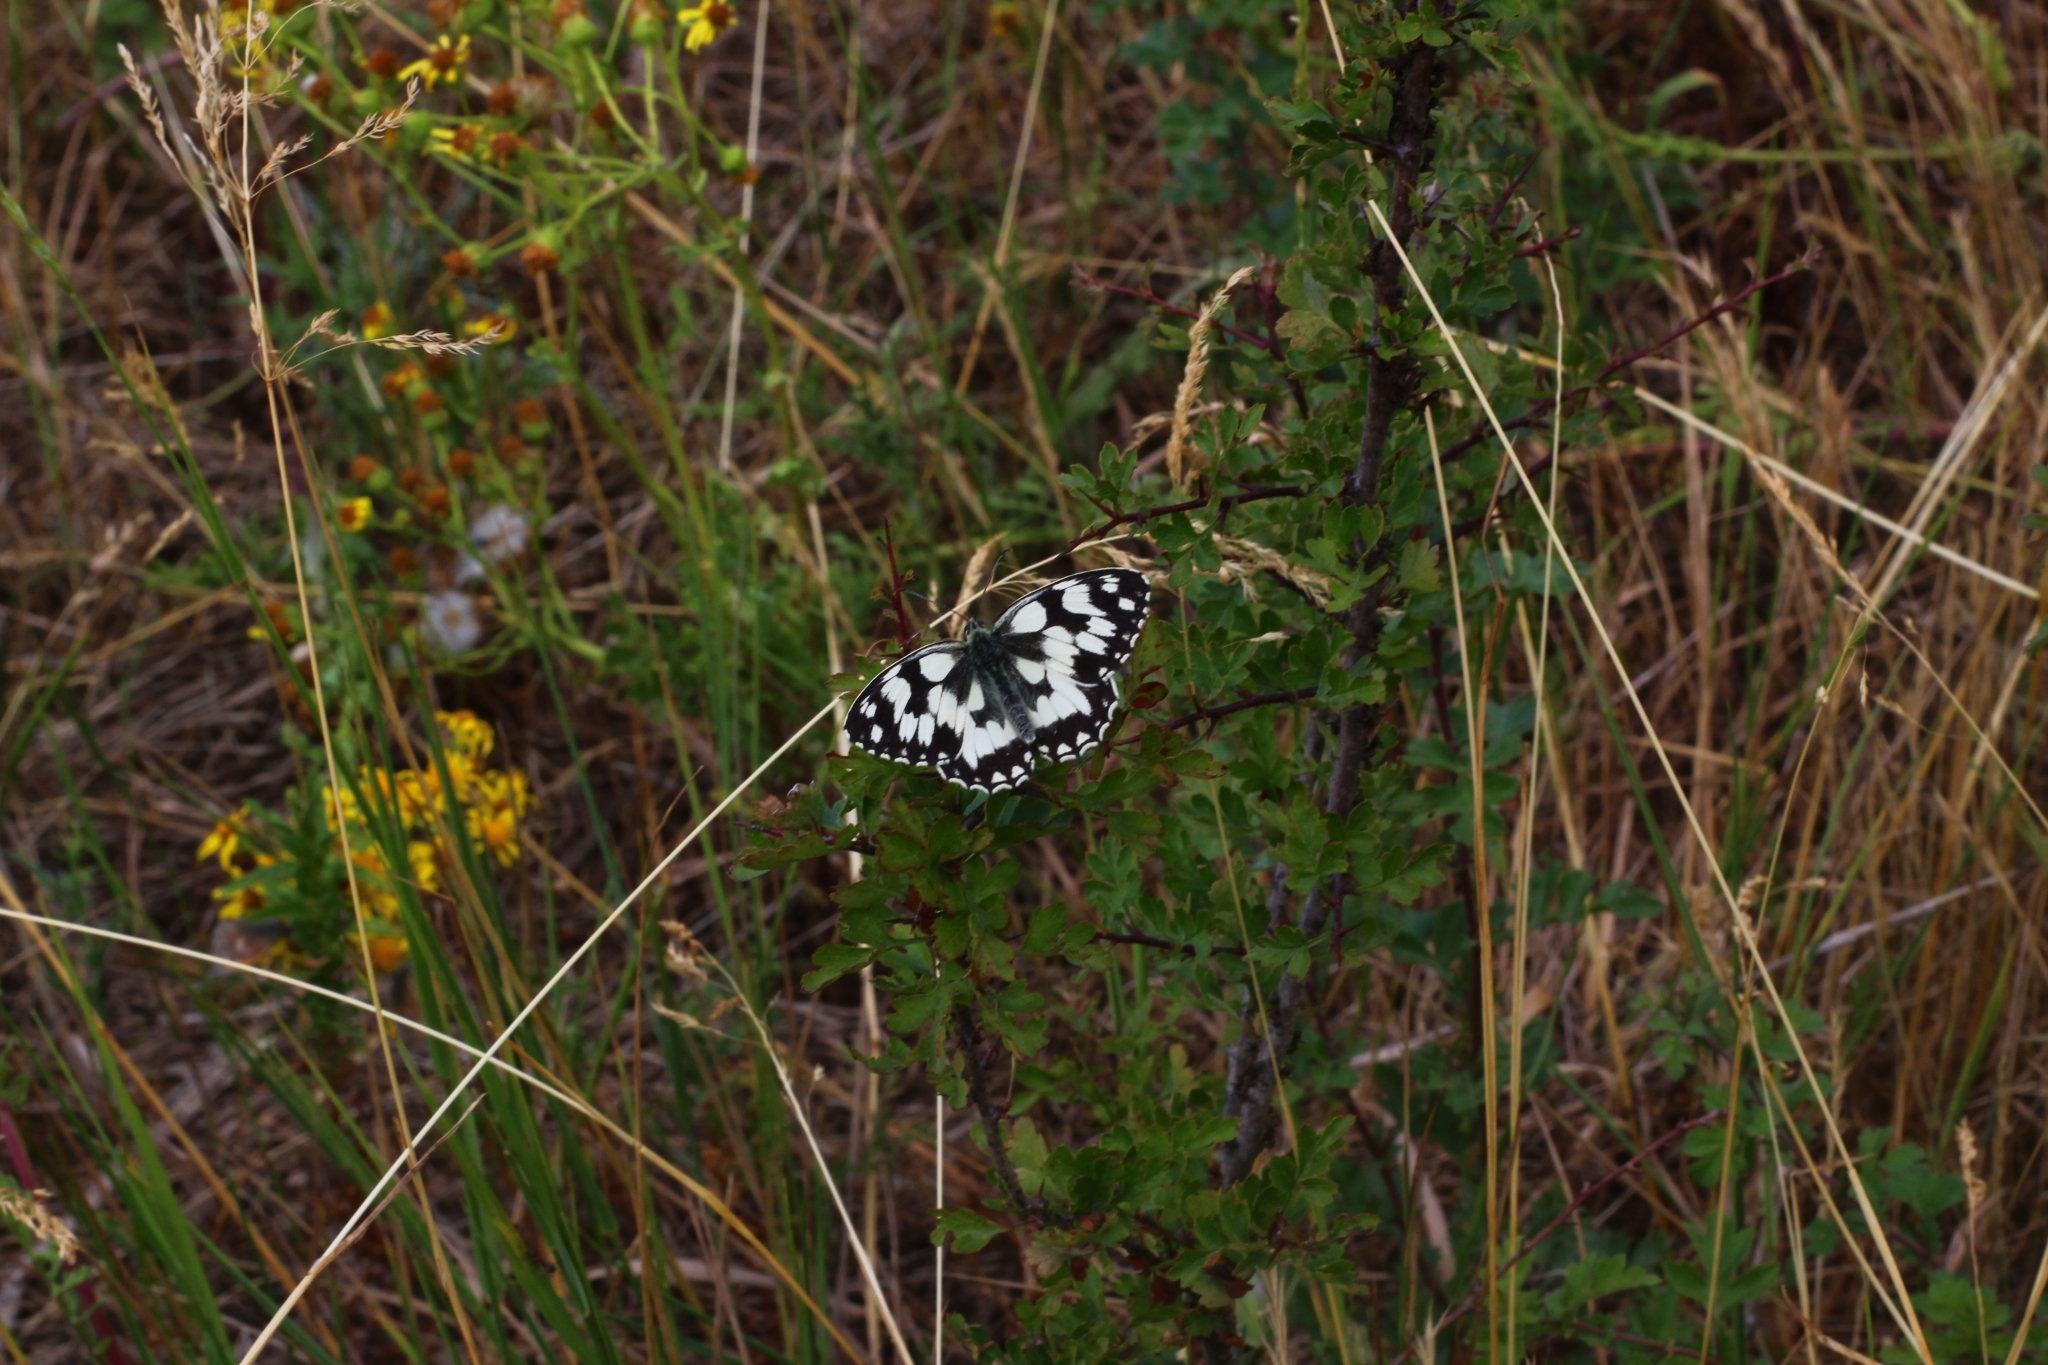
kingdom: Animalia
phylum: Arthropoda
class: Insecta
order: Lepidoptera
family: Nymphalidae
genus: Melanargia
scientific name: Melanargia galathea
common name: Marbled white
